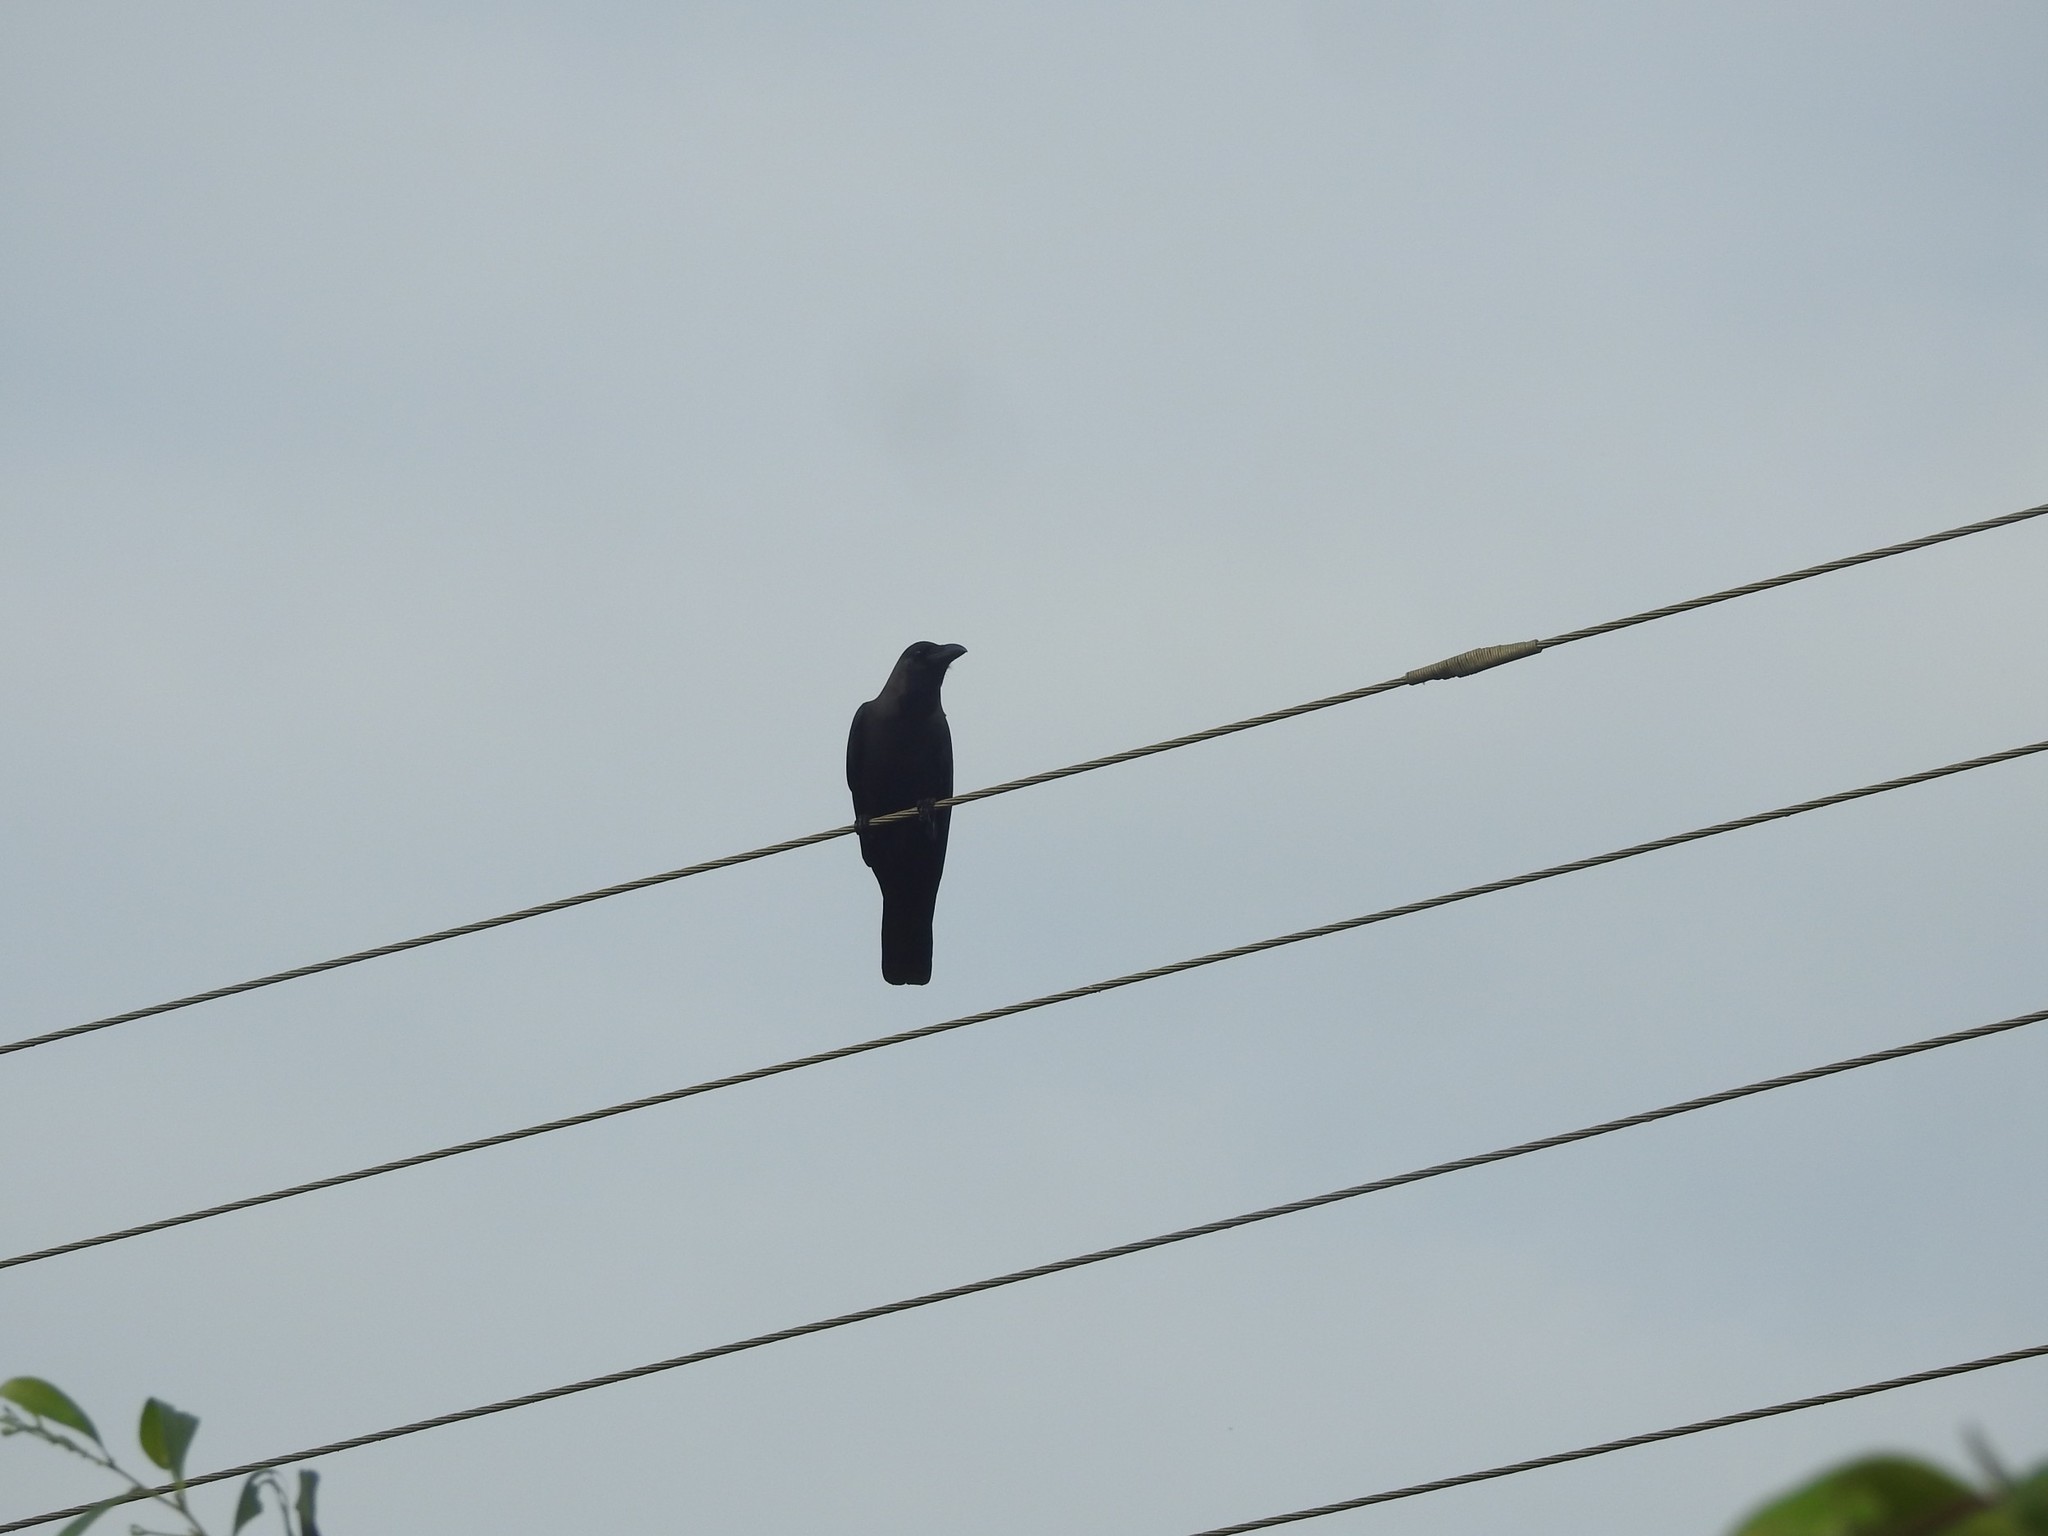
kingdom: Animalia
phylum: Chordata
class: Aves
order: Passeriformes
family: Corvidae
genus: Corvus
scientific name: Corvus splendens
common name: House crow
